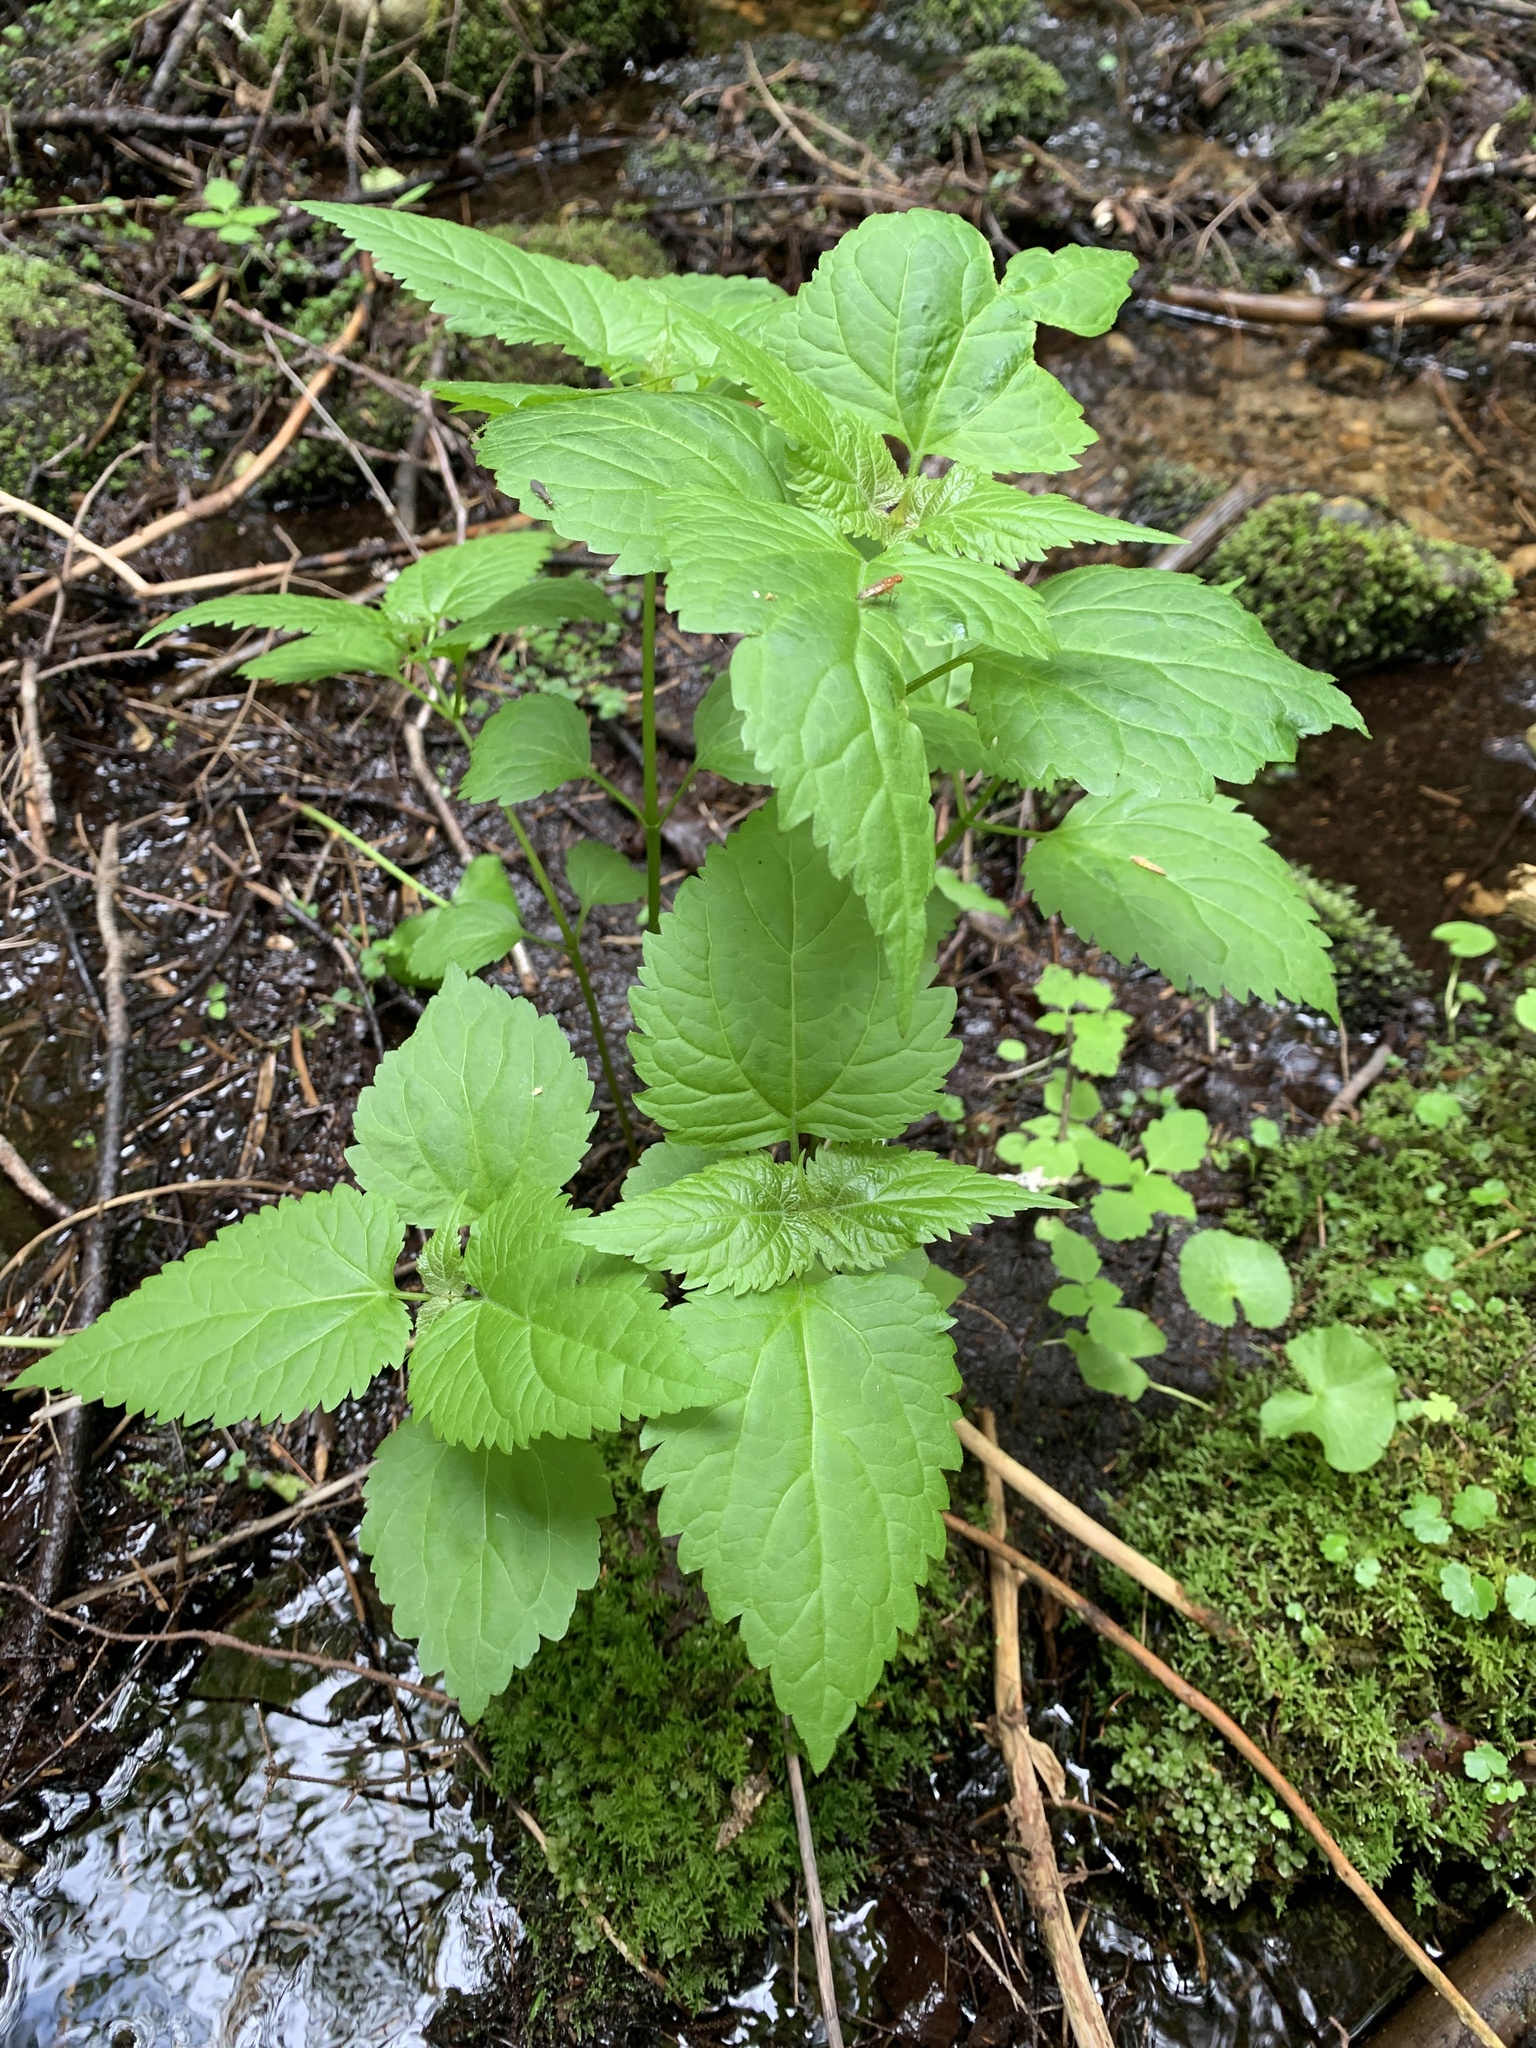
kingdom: Plantae
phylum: Tracheophyta
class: Magnoliopsida
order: Asterales
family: Asteraceae
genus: Ageratina
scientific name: Ageratina altissima
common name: White snakeroot
